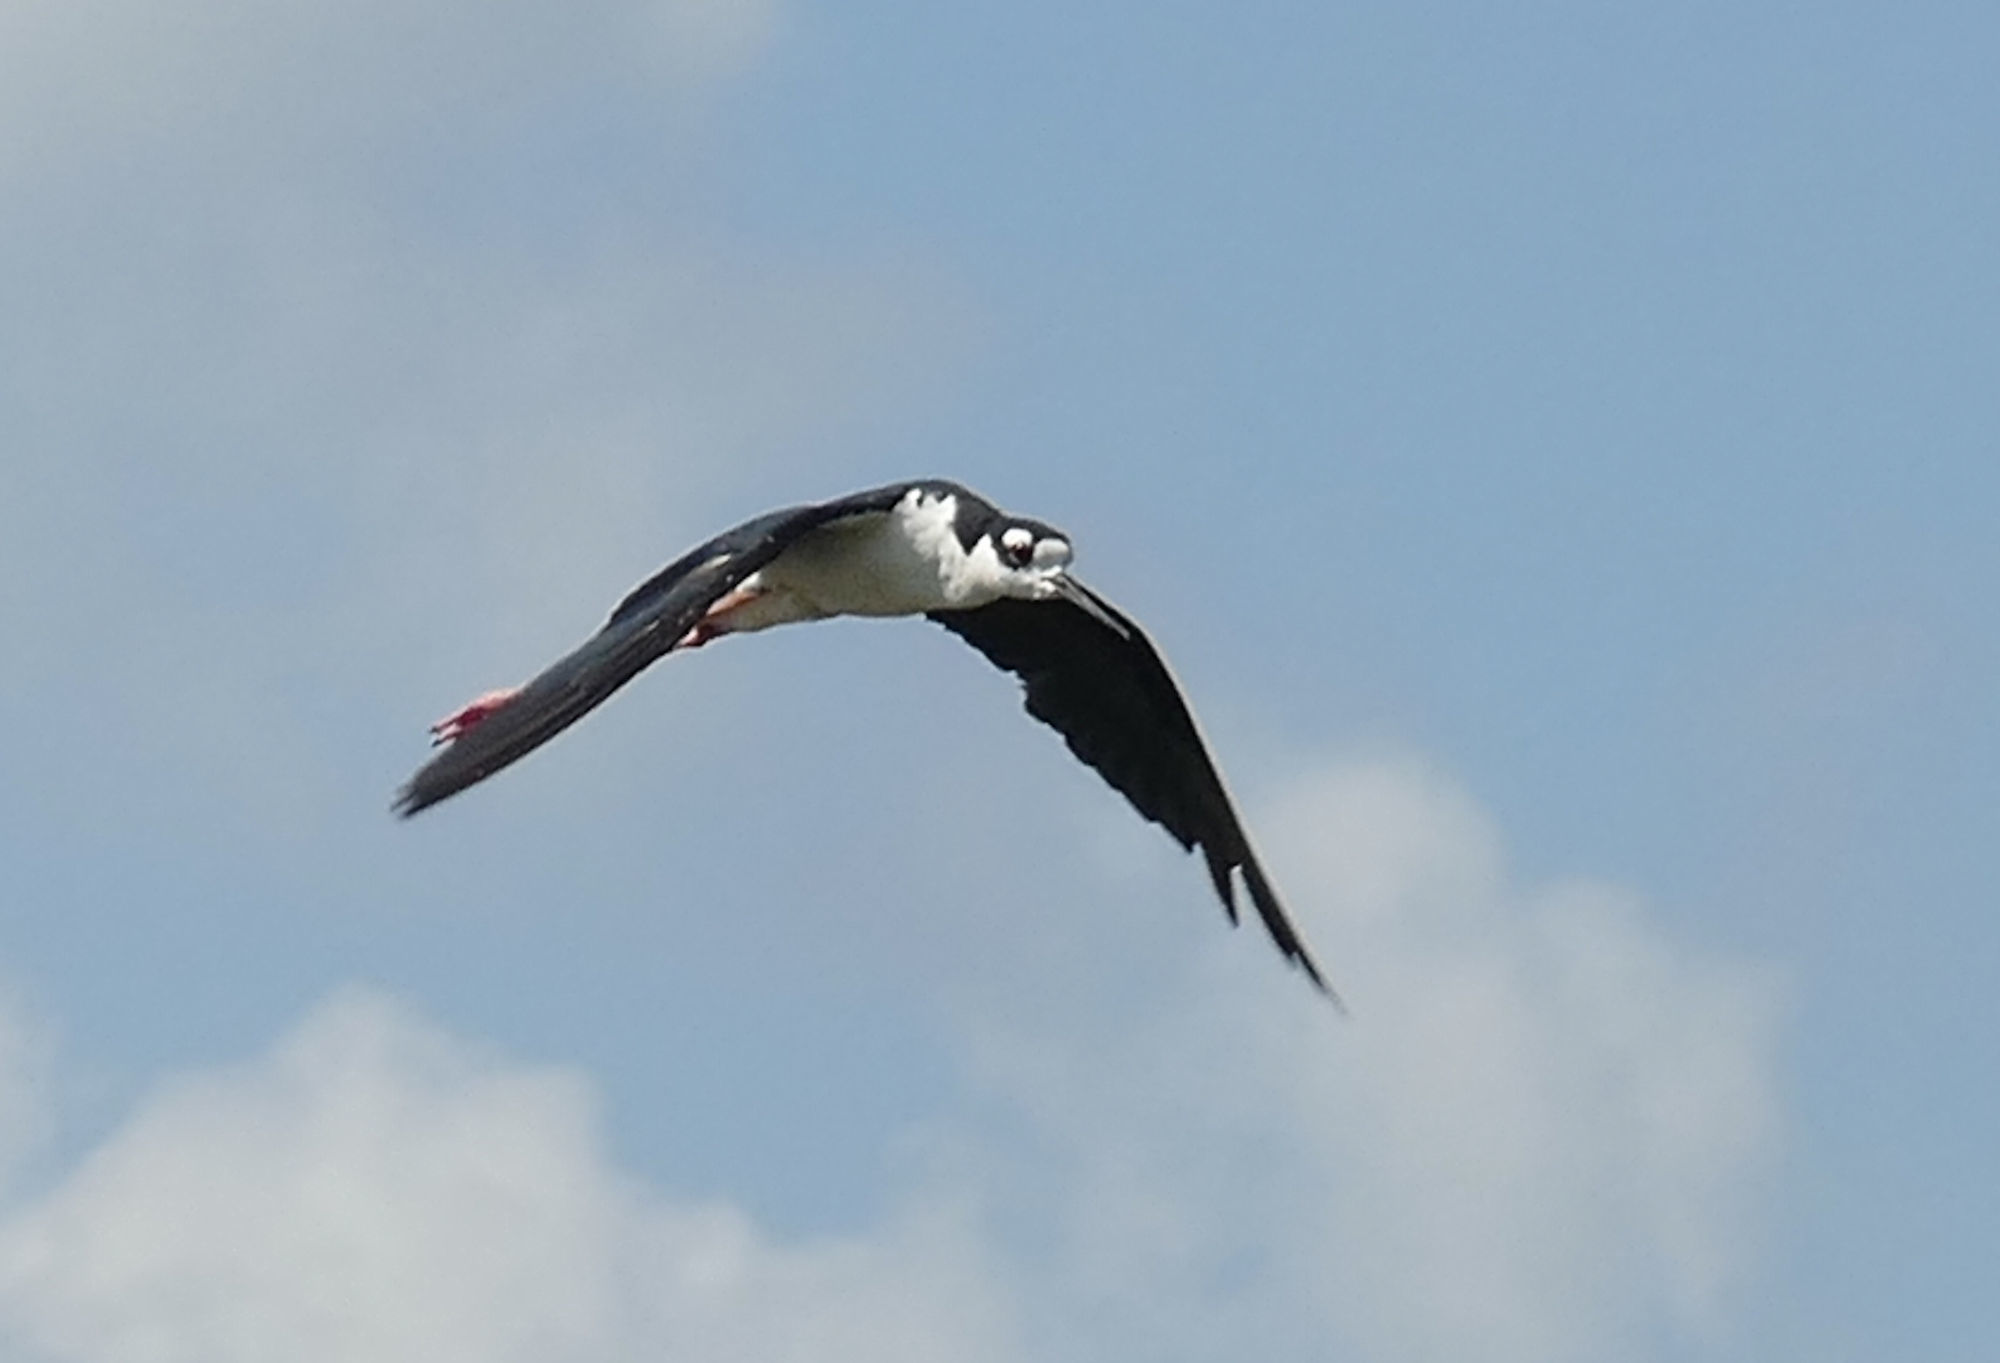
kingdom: Animalia
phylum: Chordata
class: Aves
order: Charadriiformes
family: Recurvirostridae
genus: Himantopus
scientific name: Himantopus mexicanus
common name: Black-necked stilt
